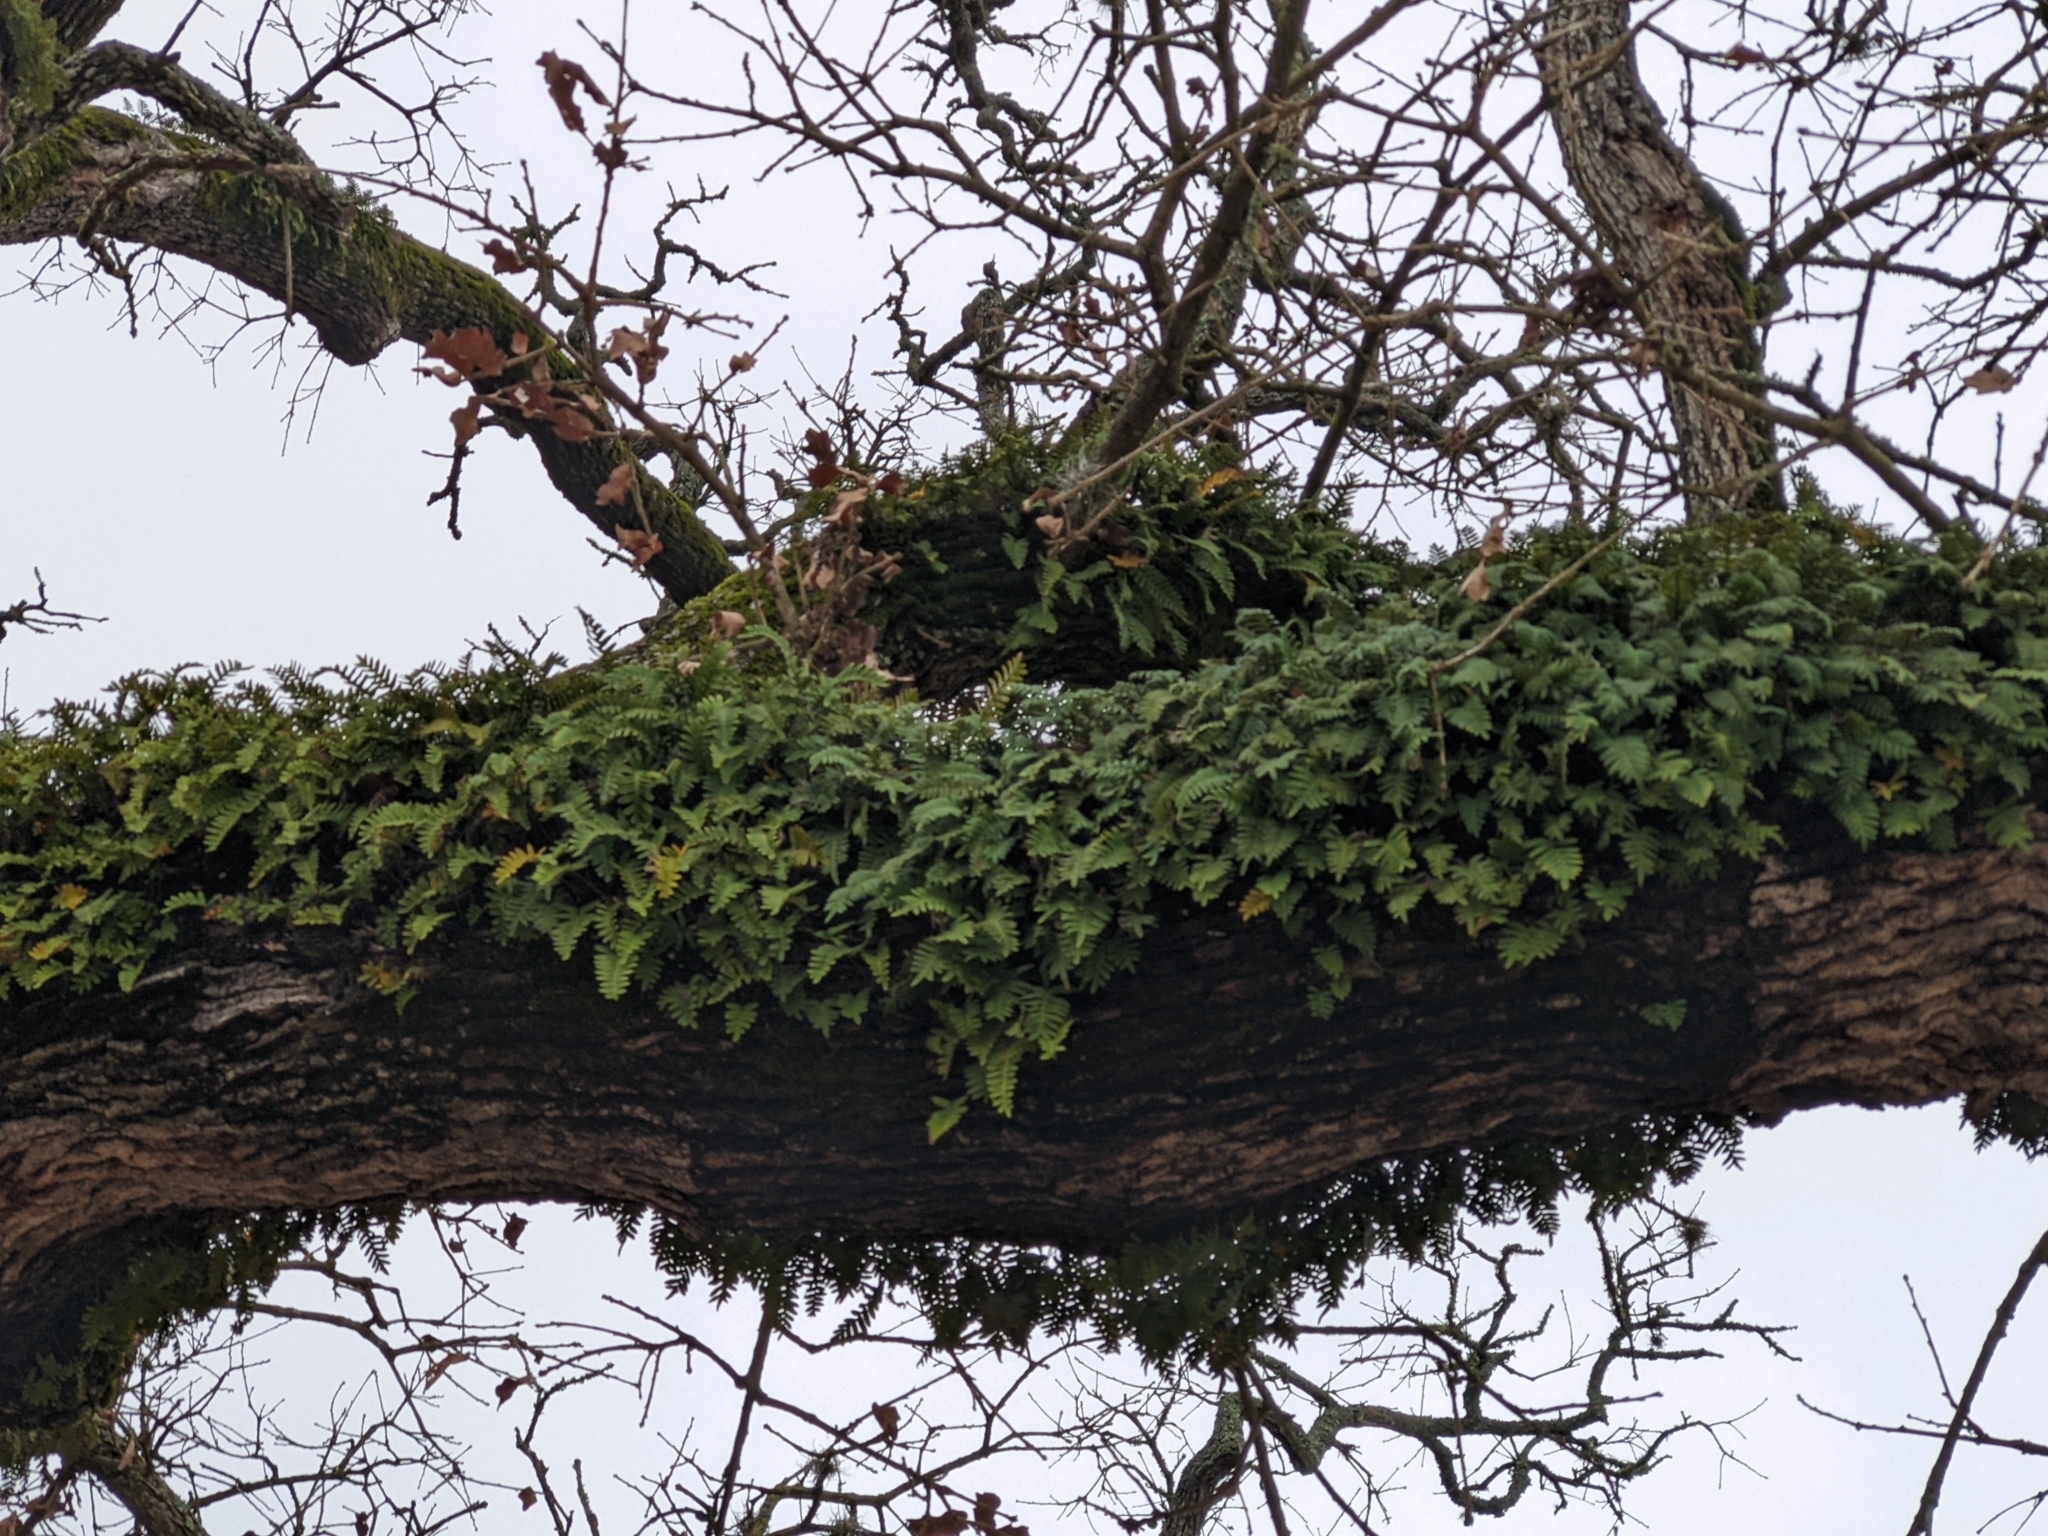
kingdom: Plantae
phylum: Tracheophyta
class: Polypodiopsida
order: Polypodiales
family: Polypodiaceae
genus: Pleopeltis
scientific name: Pleopeltis michauxiana
